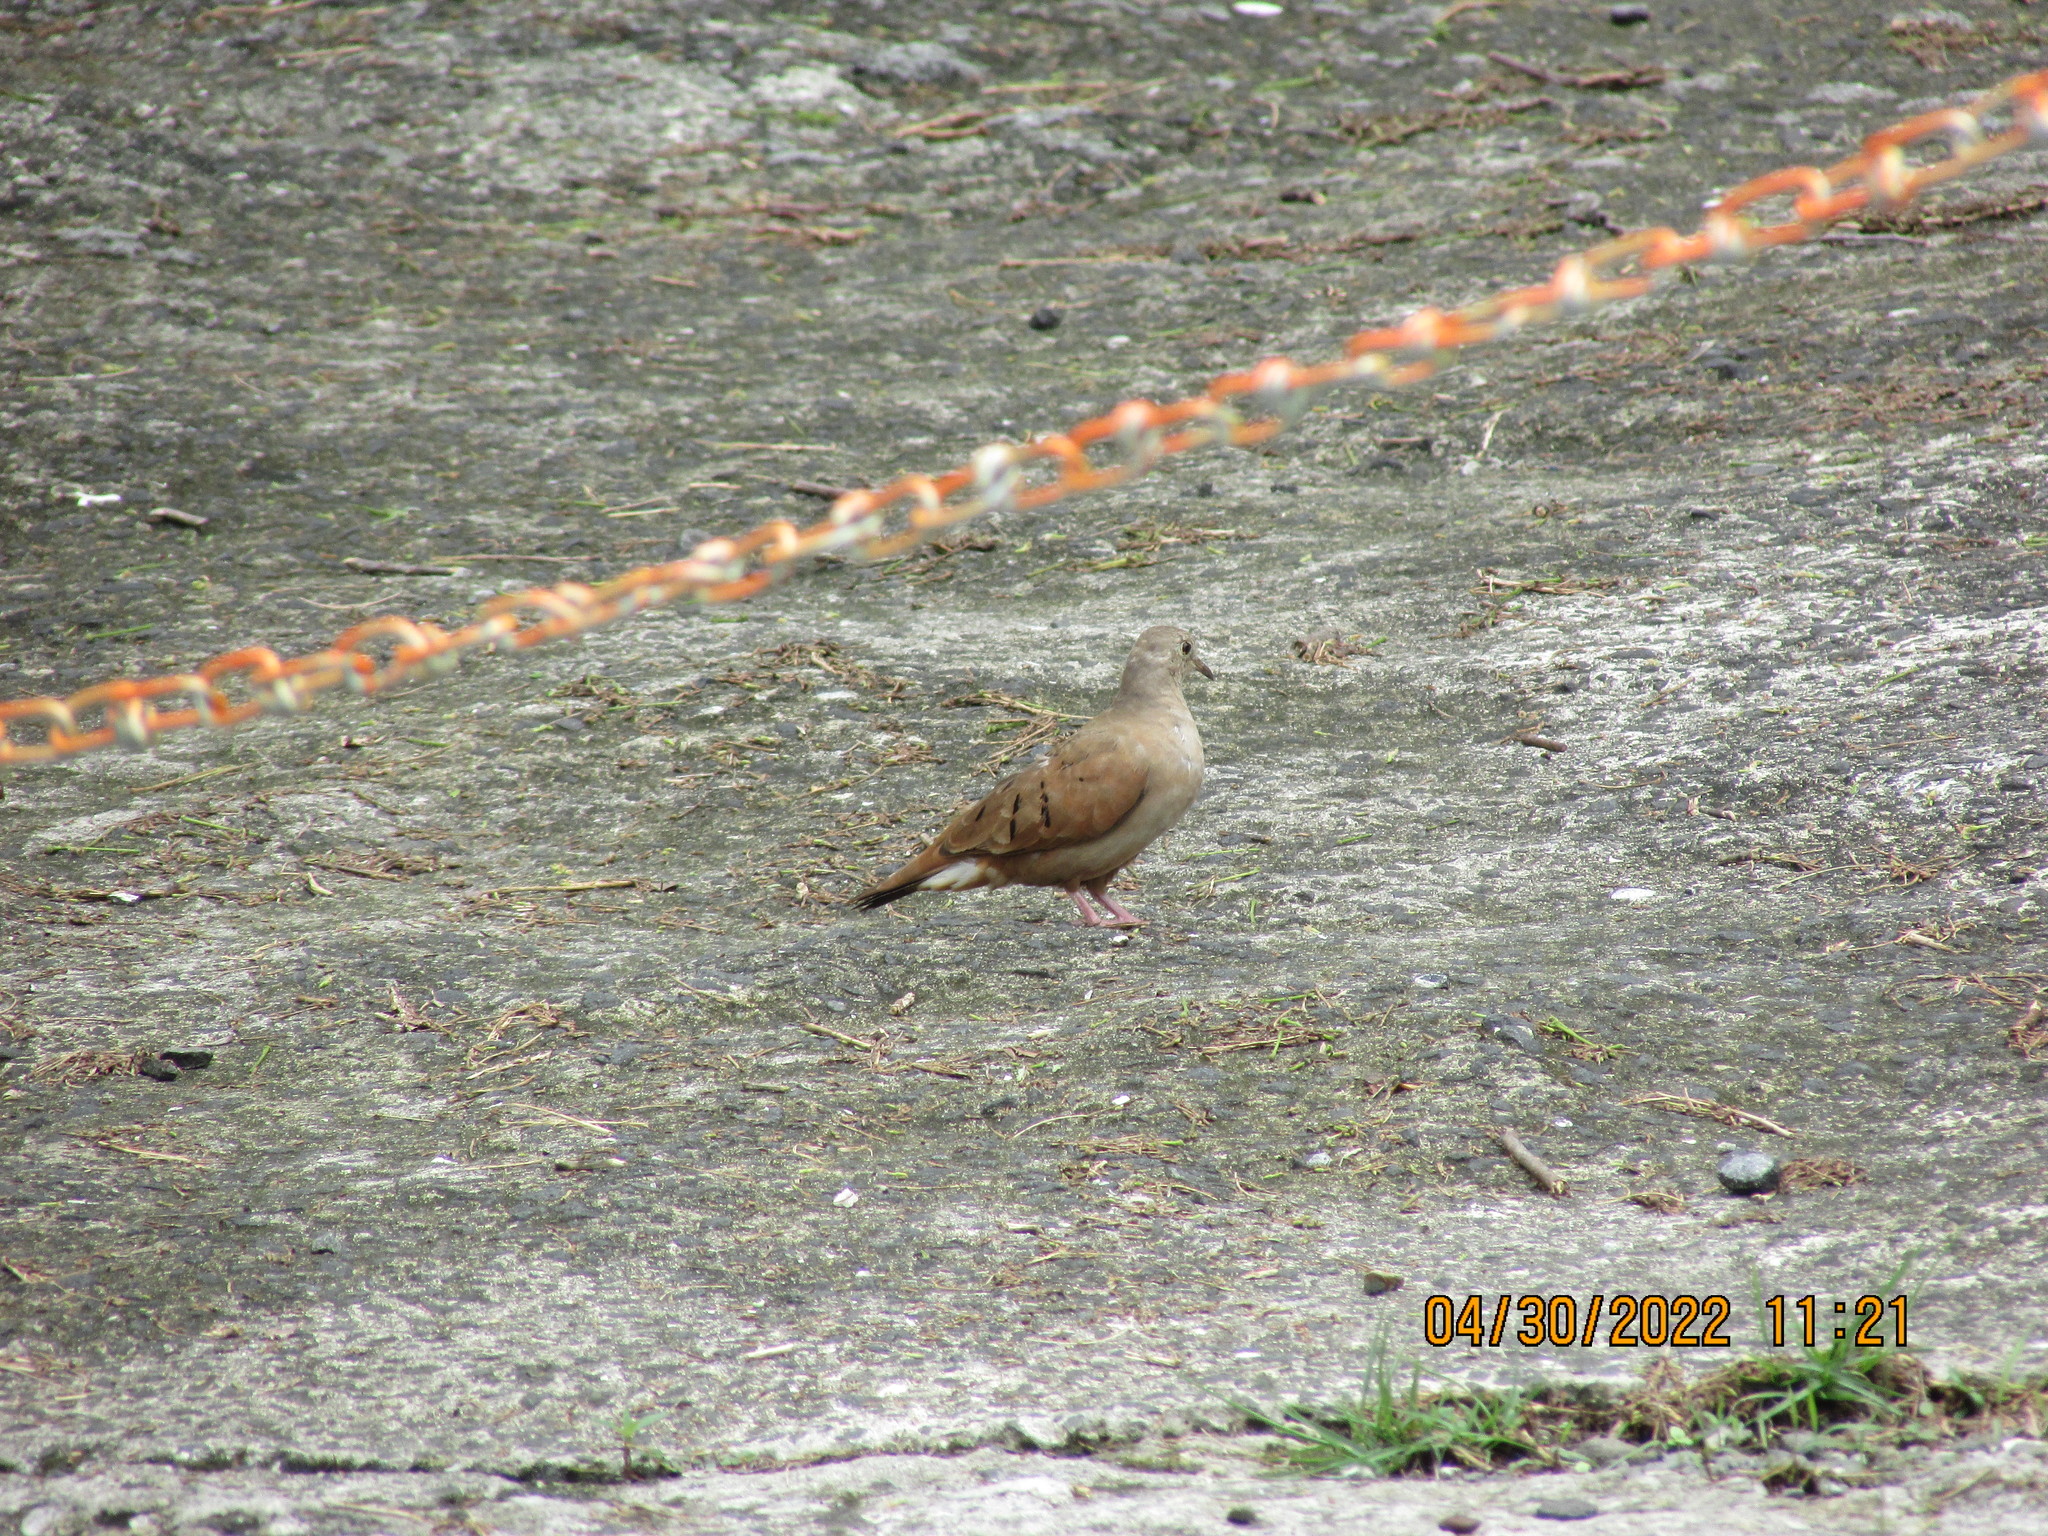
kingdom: Animalia
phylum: Chordata
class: Aves
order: Columbiformes
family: Columbidae
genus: Columbina
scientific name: Columbina talpacoti
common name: Ruddy ground dove
